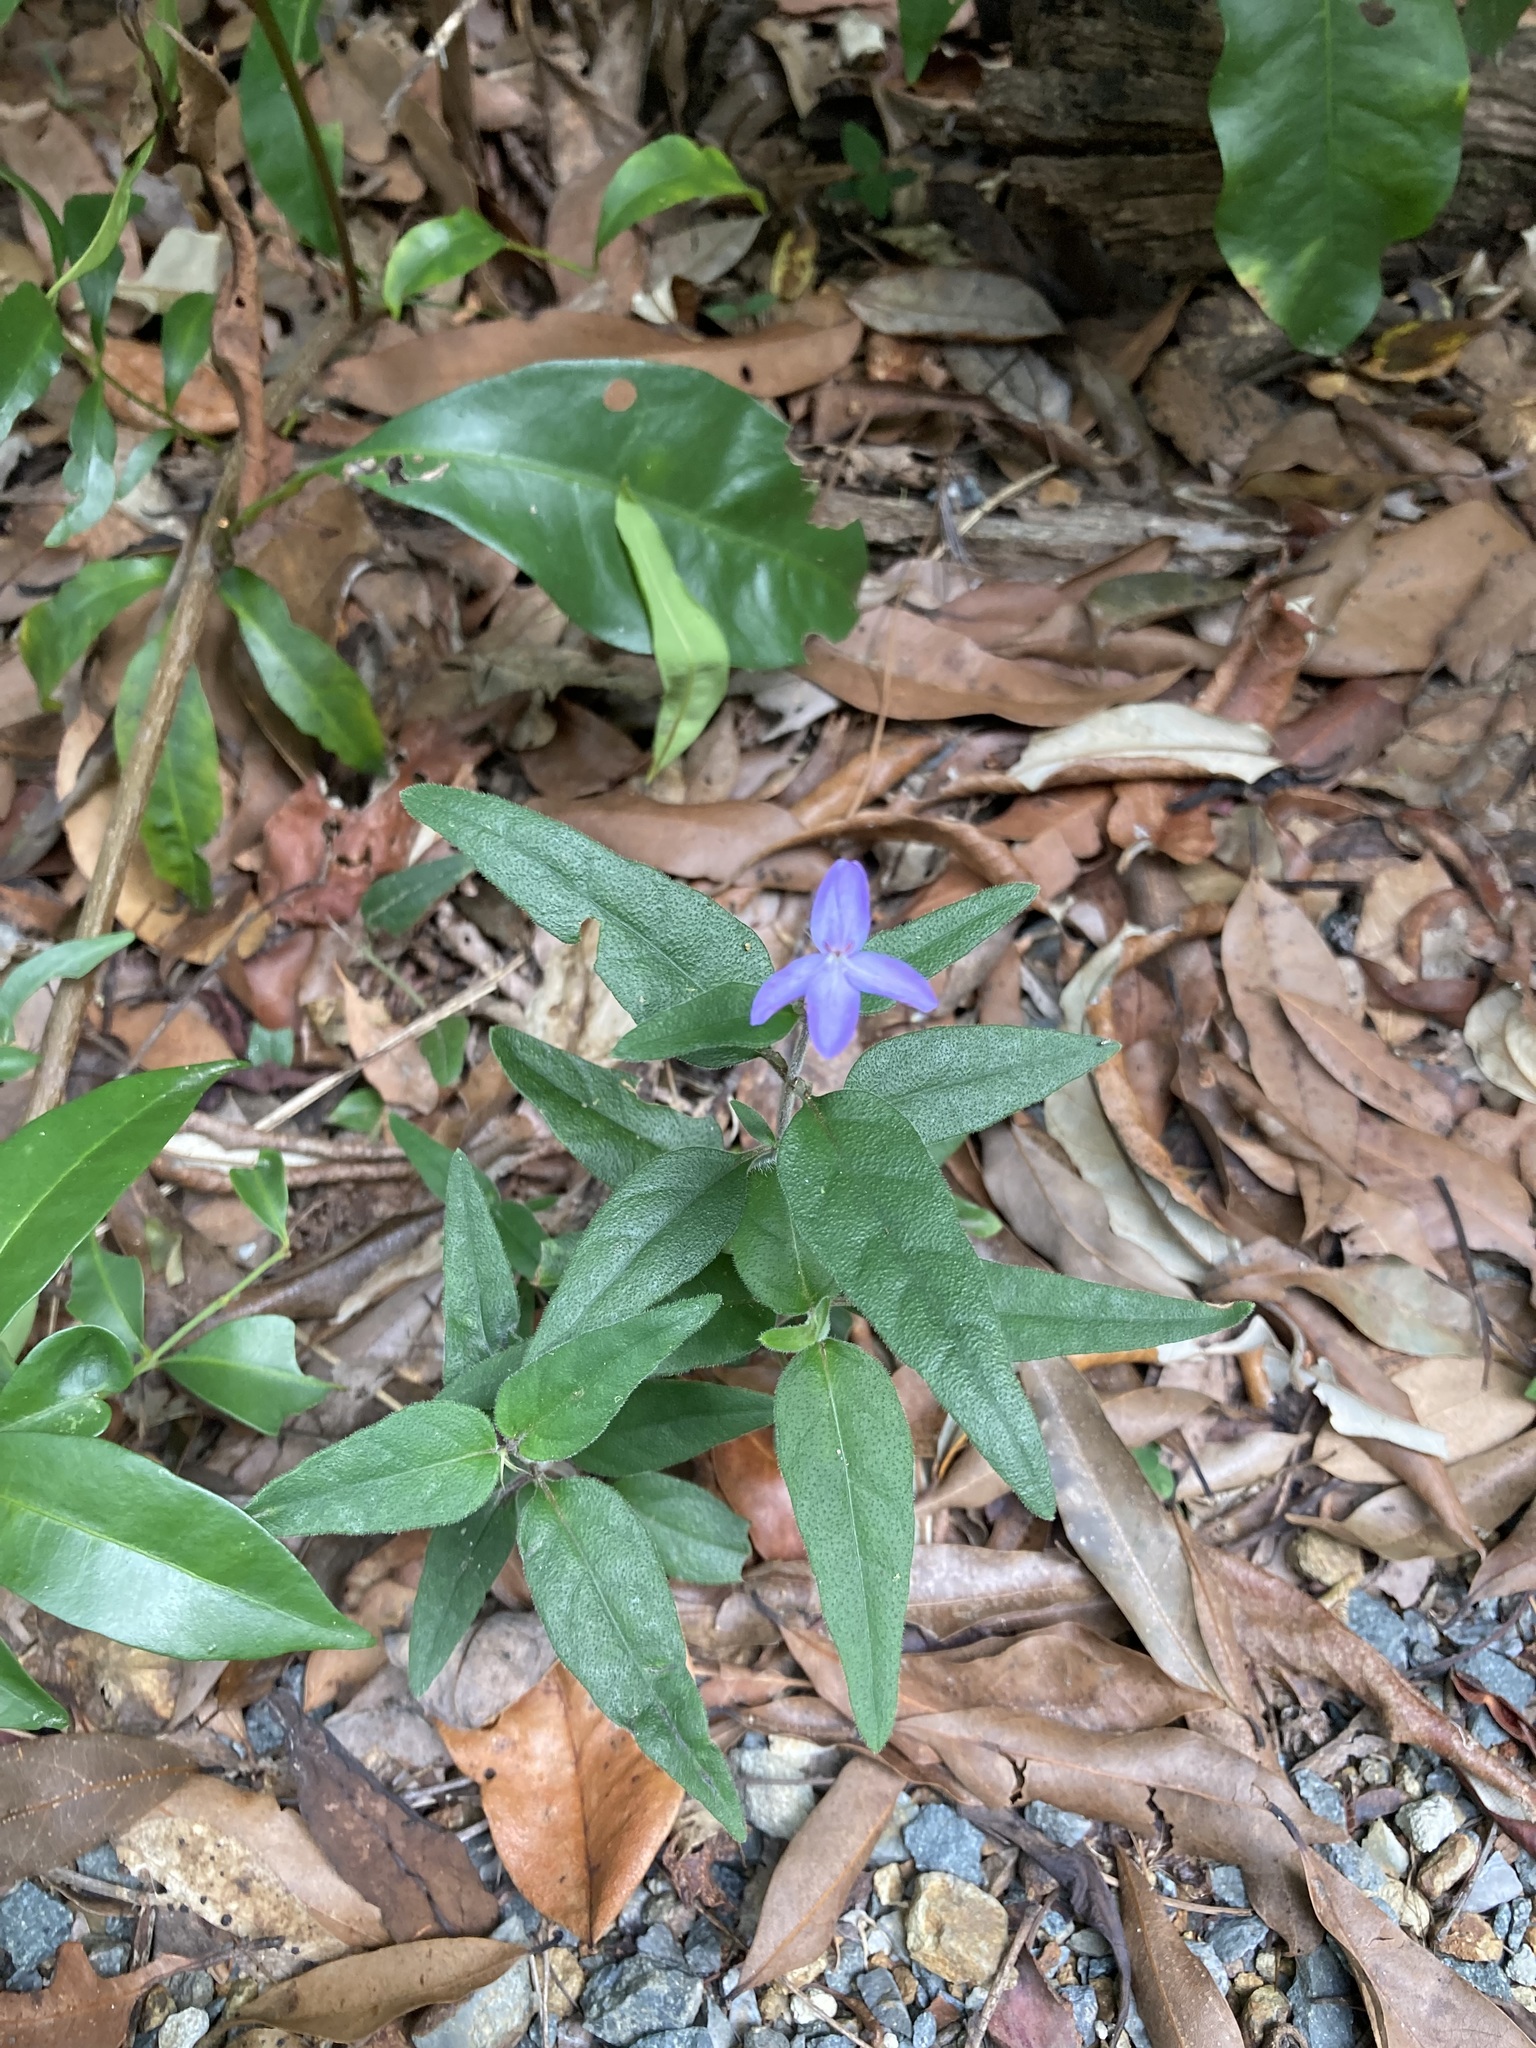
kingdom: Plantae
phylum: Tracheophyta
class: Magnoliopsida
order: Lamiales
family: Acanthaceae
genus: Pseuderanthemum
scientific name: Pseuderanthemum variabile
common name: Night and afternoon
